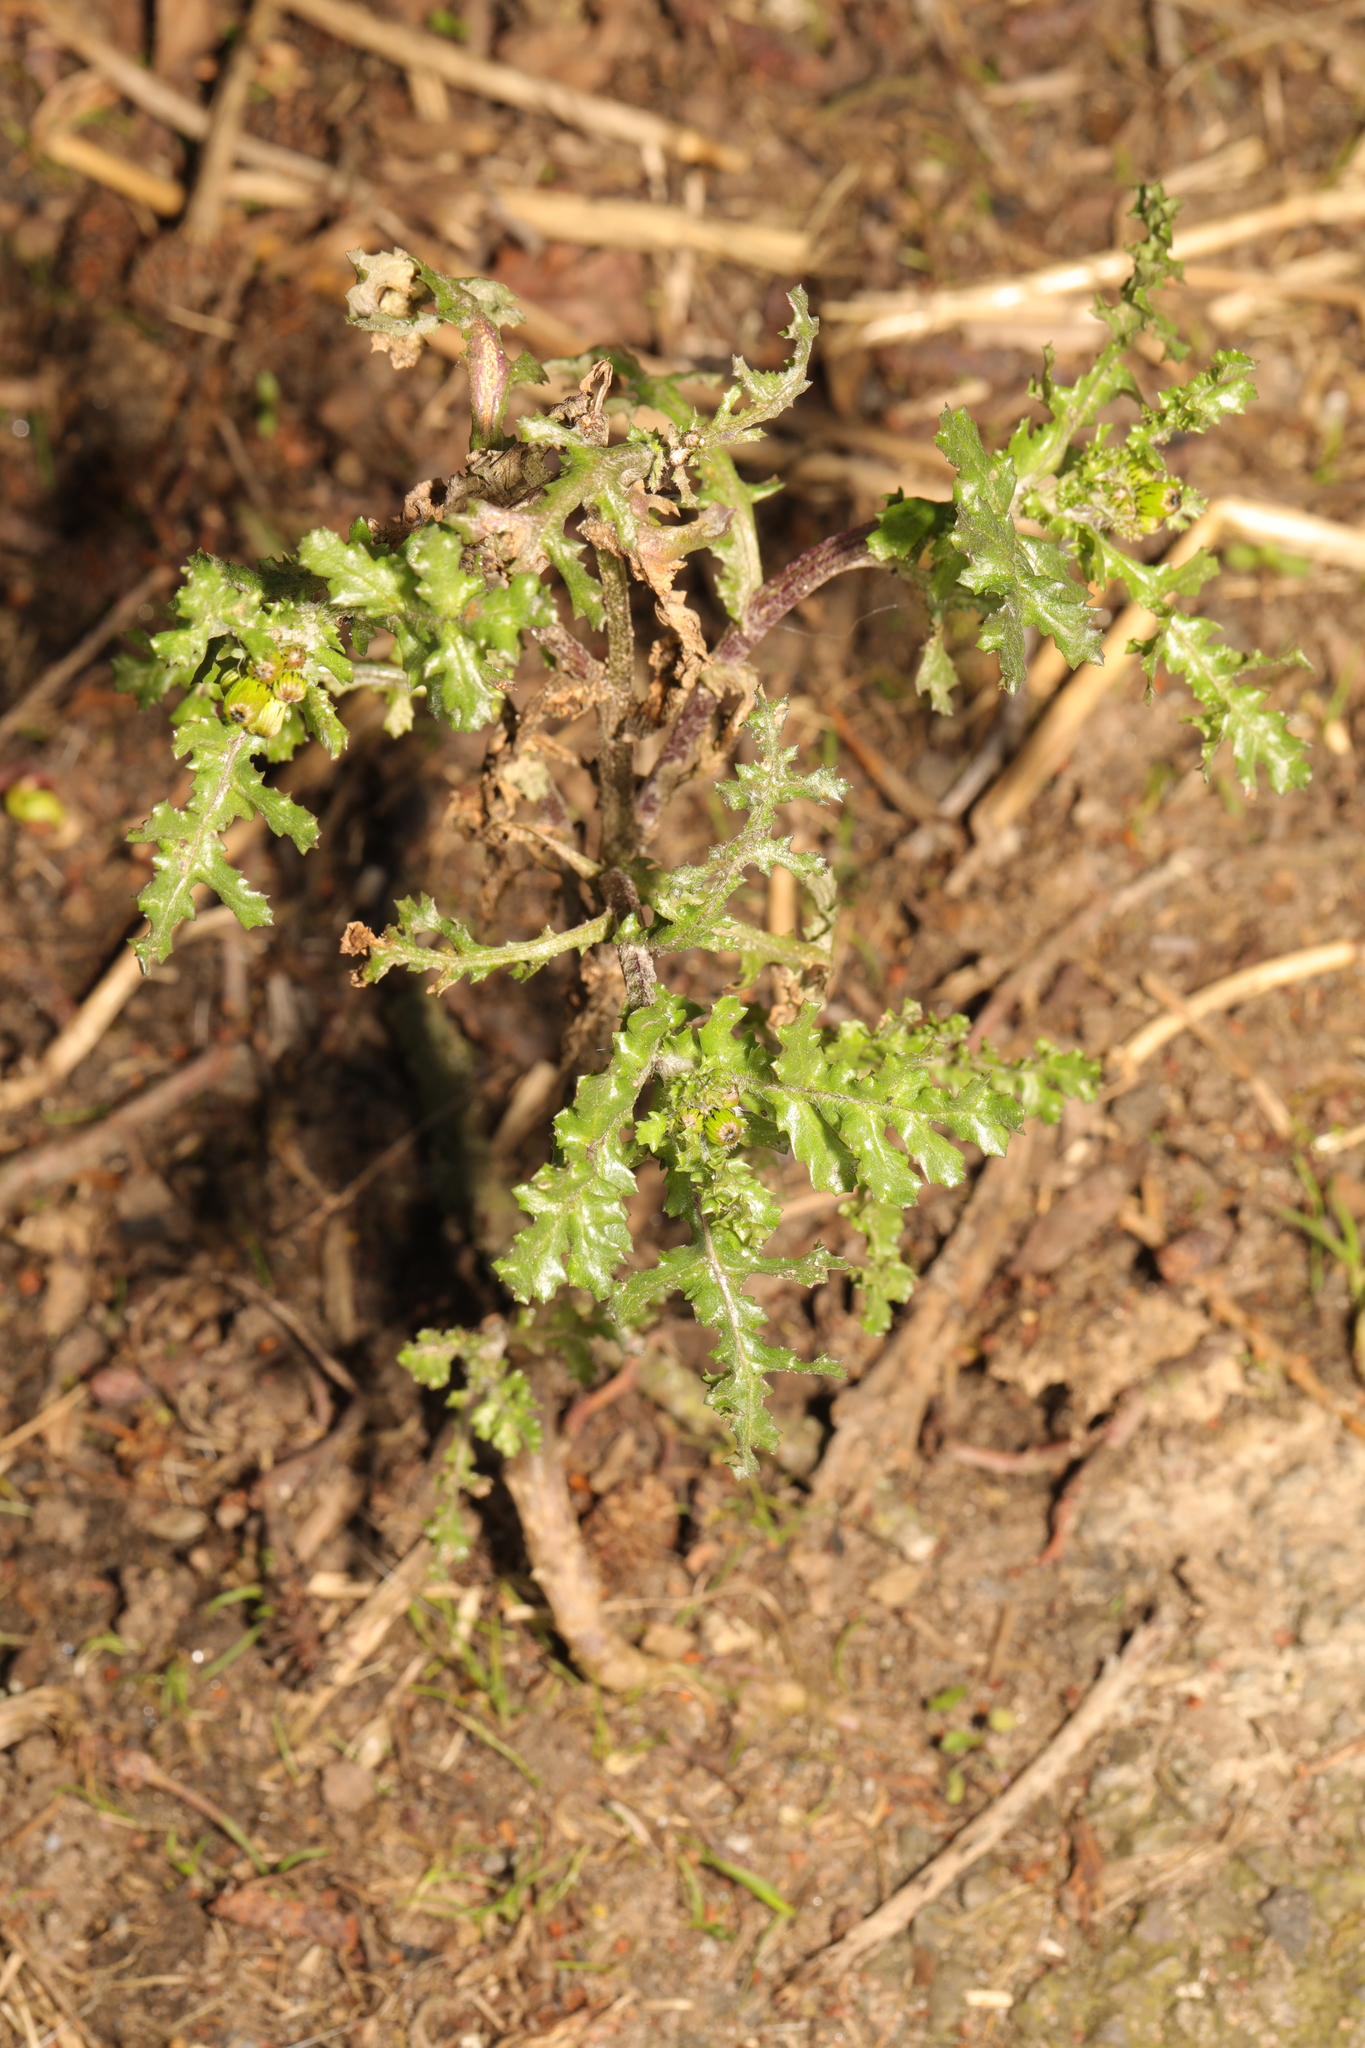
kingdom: Plantae
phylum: Tracheophyta
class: Magnoliopsida
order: Asterales
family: Asteraceae
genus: Senecio
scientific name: Senecio vulgaris
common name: Old-man-in-the-spring
